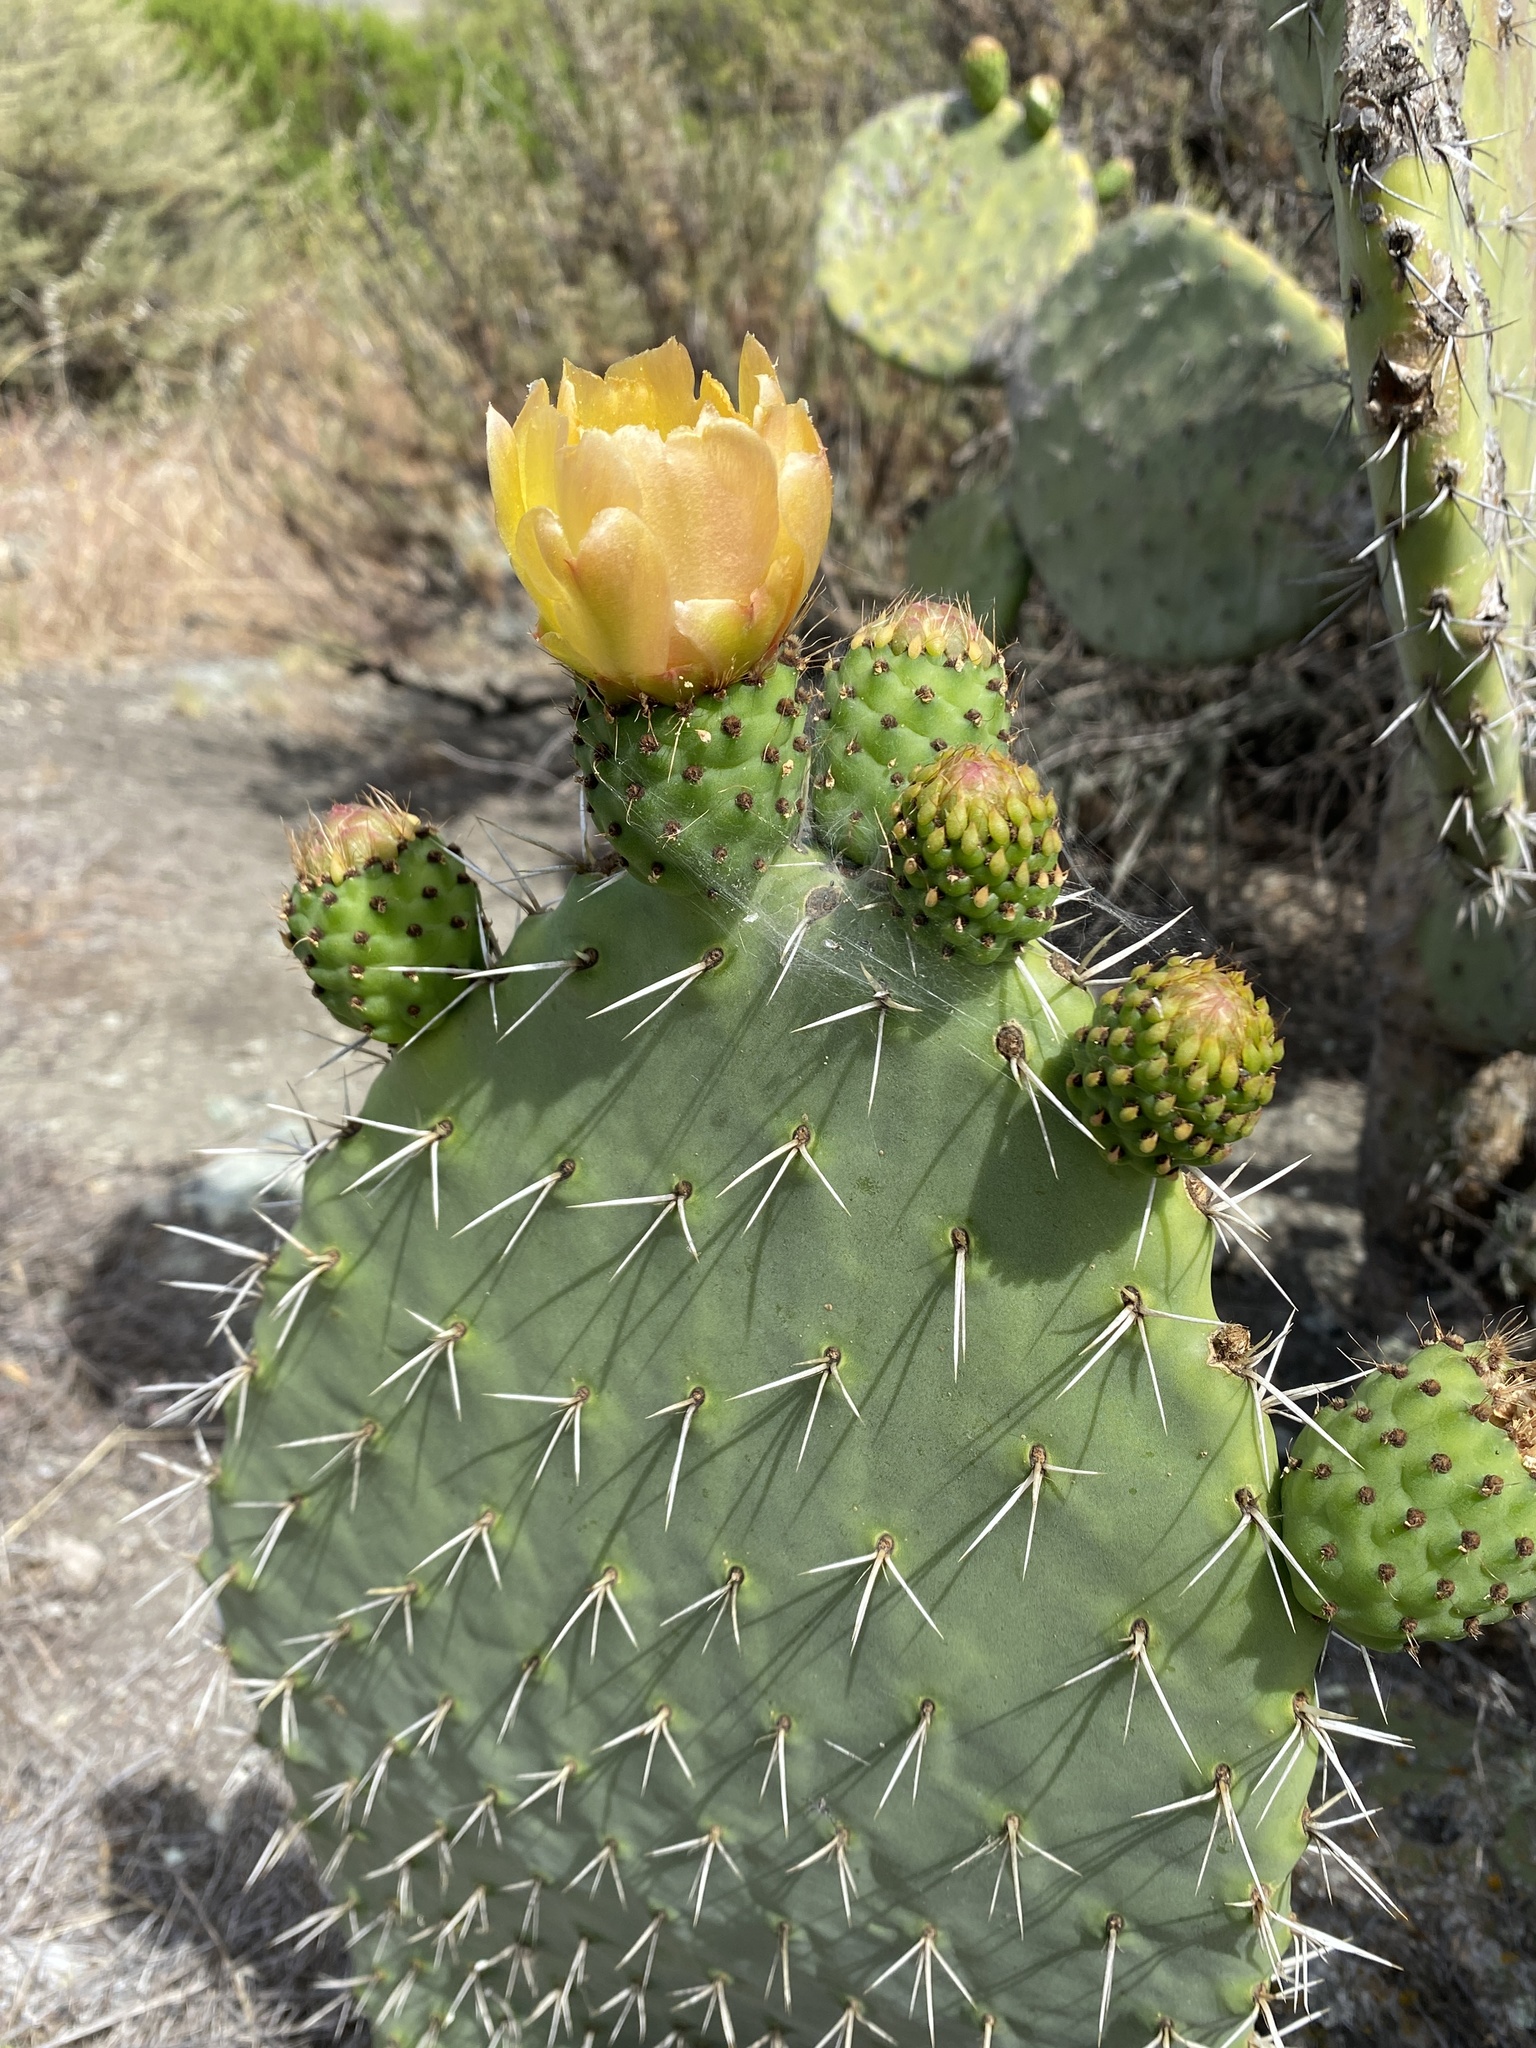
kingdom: Plantae
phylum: Tracheophyta
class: Magnoliopsida
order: Caryophyllales
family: Cactaceae
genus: Opuntia
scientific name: Opuntia ficus-indica
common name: Barbary fig
